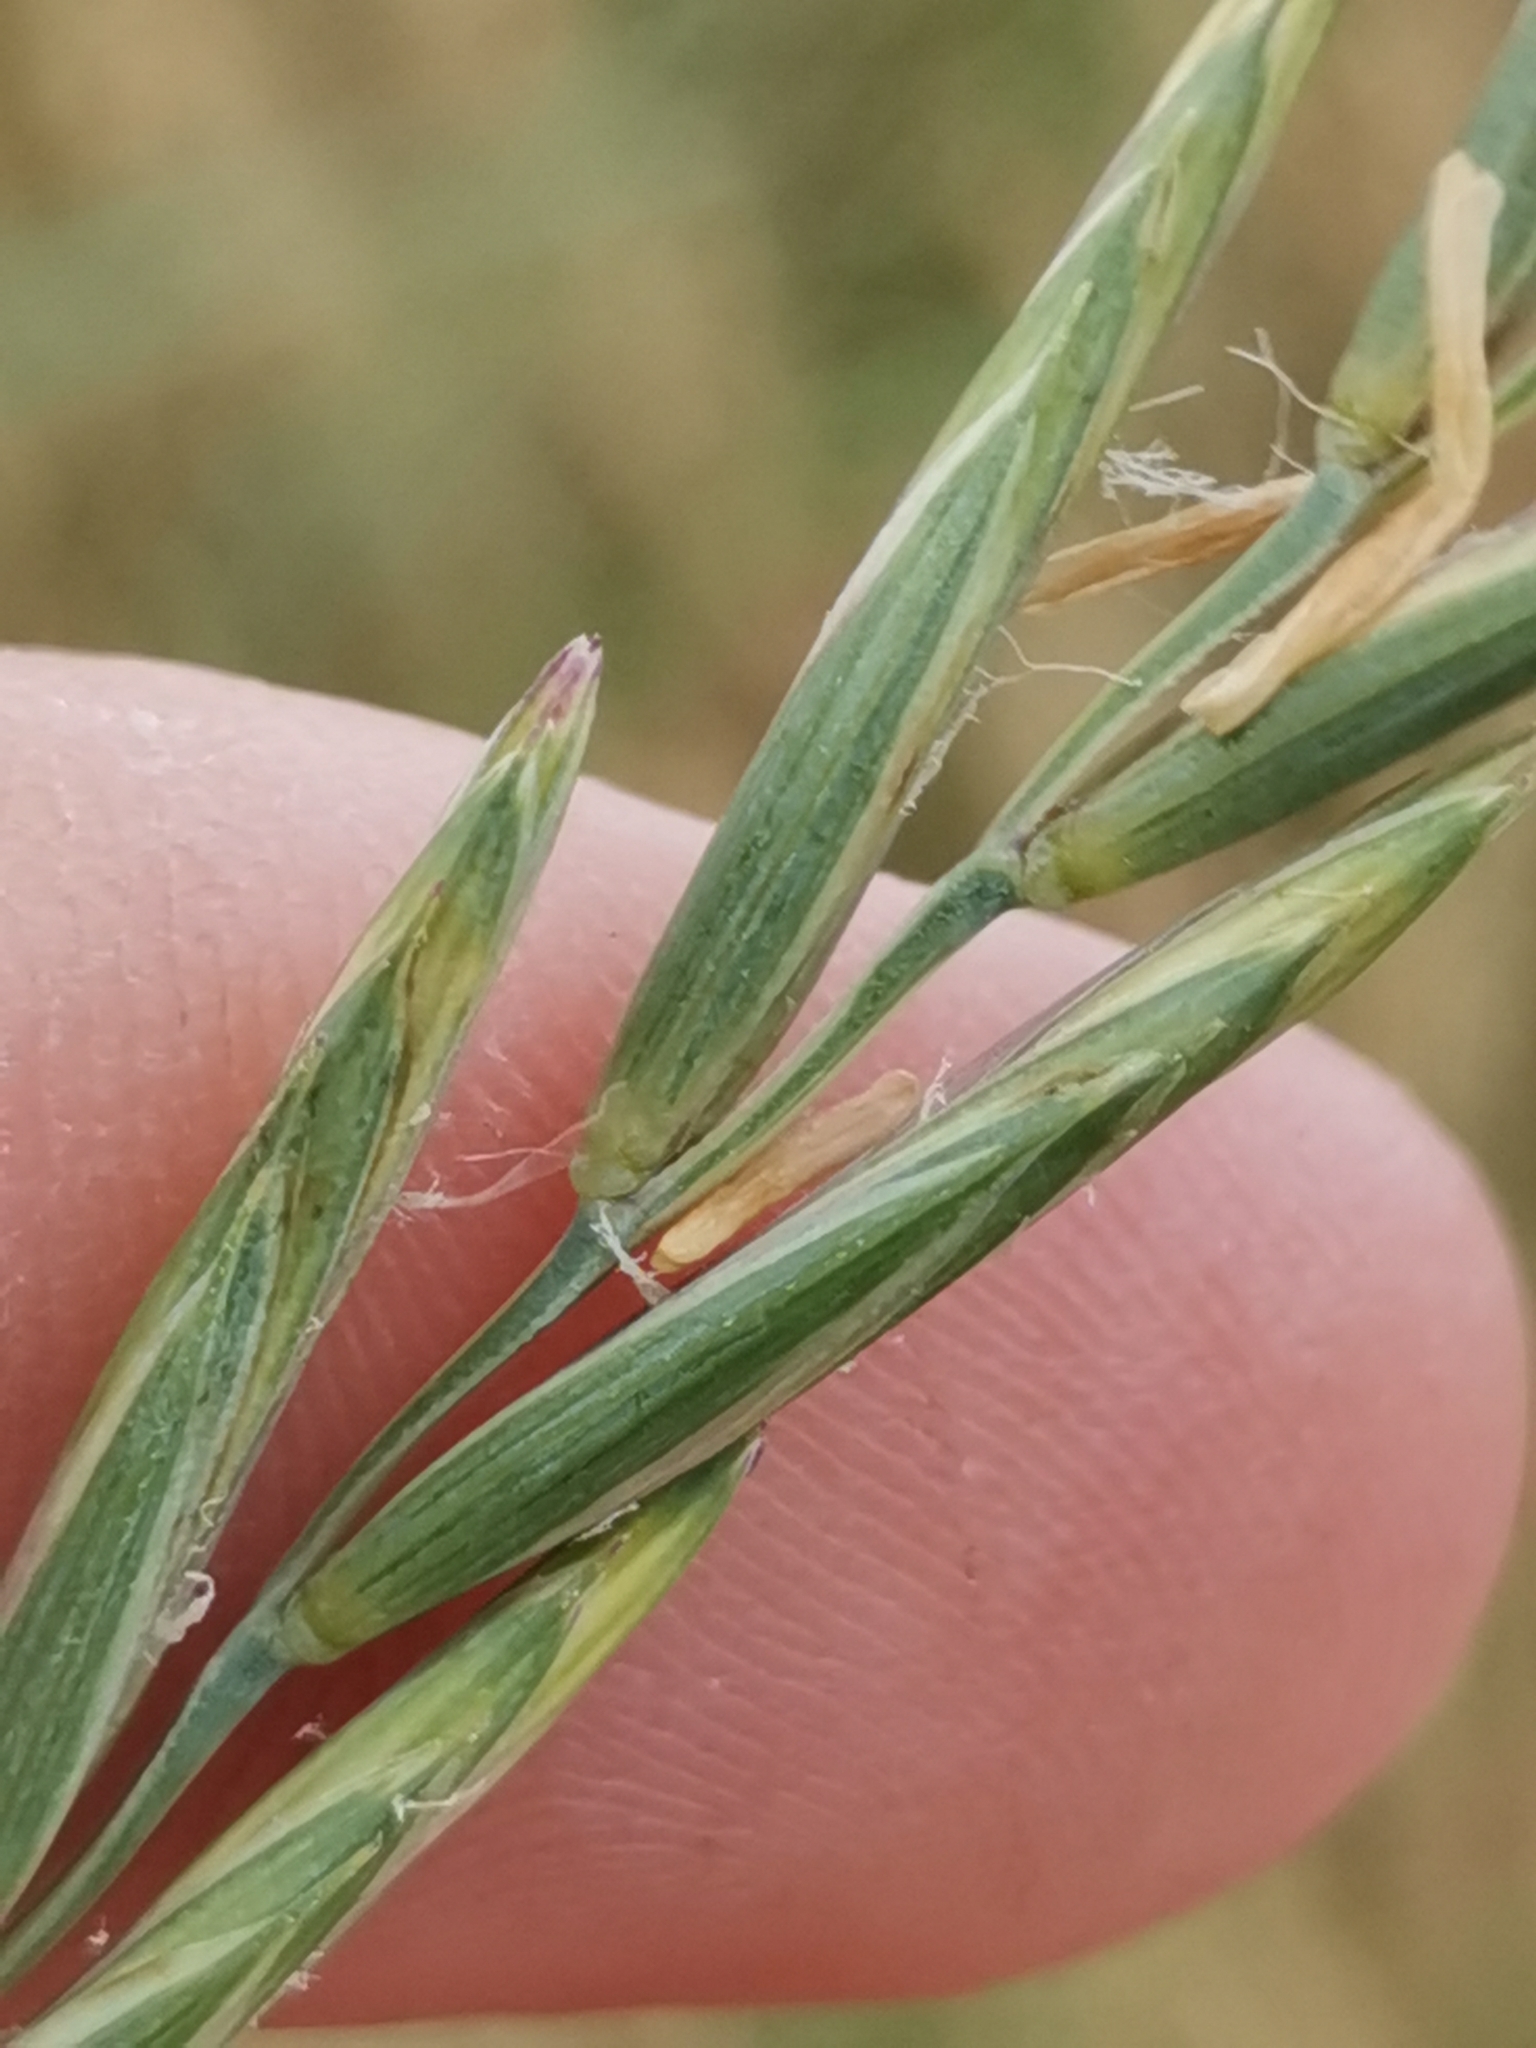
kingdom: Plantae
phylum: Tracheophyta
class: Liliopsida
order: Poales
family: Poaceae
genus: Elymus
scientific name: Elymus repens
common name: Quackgrass
